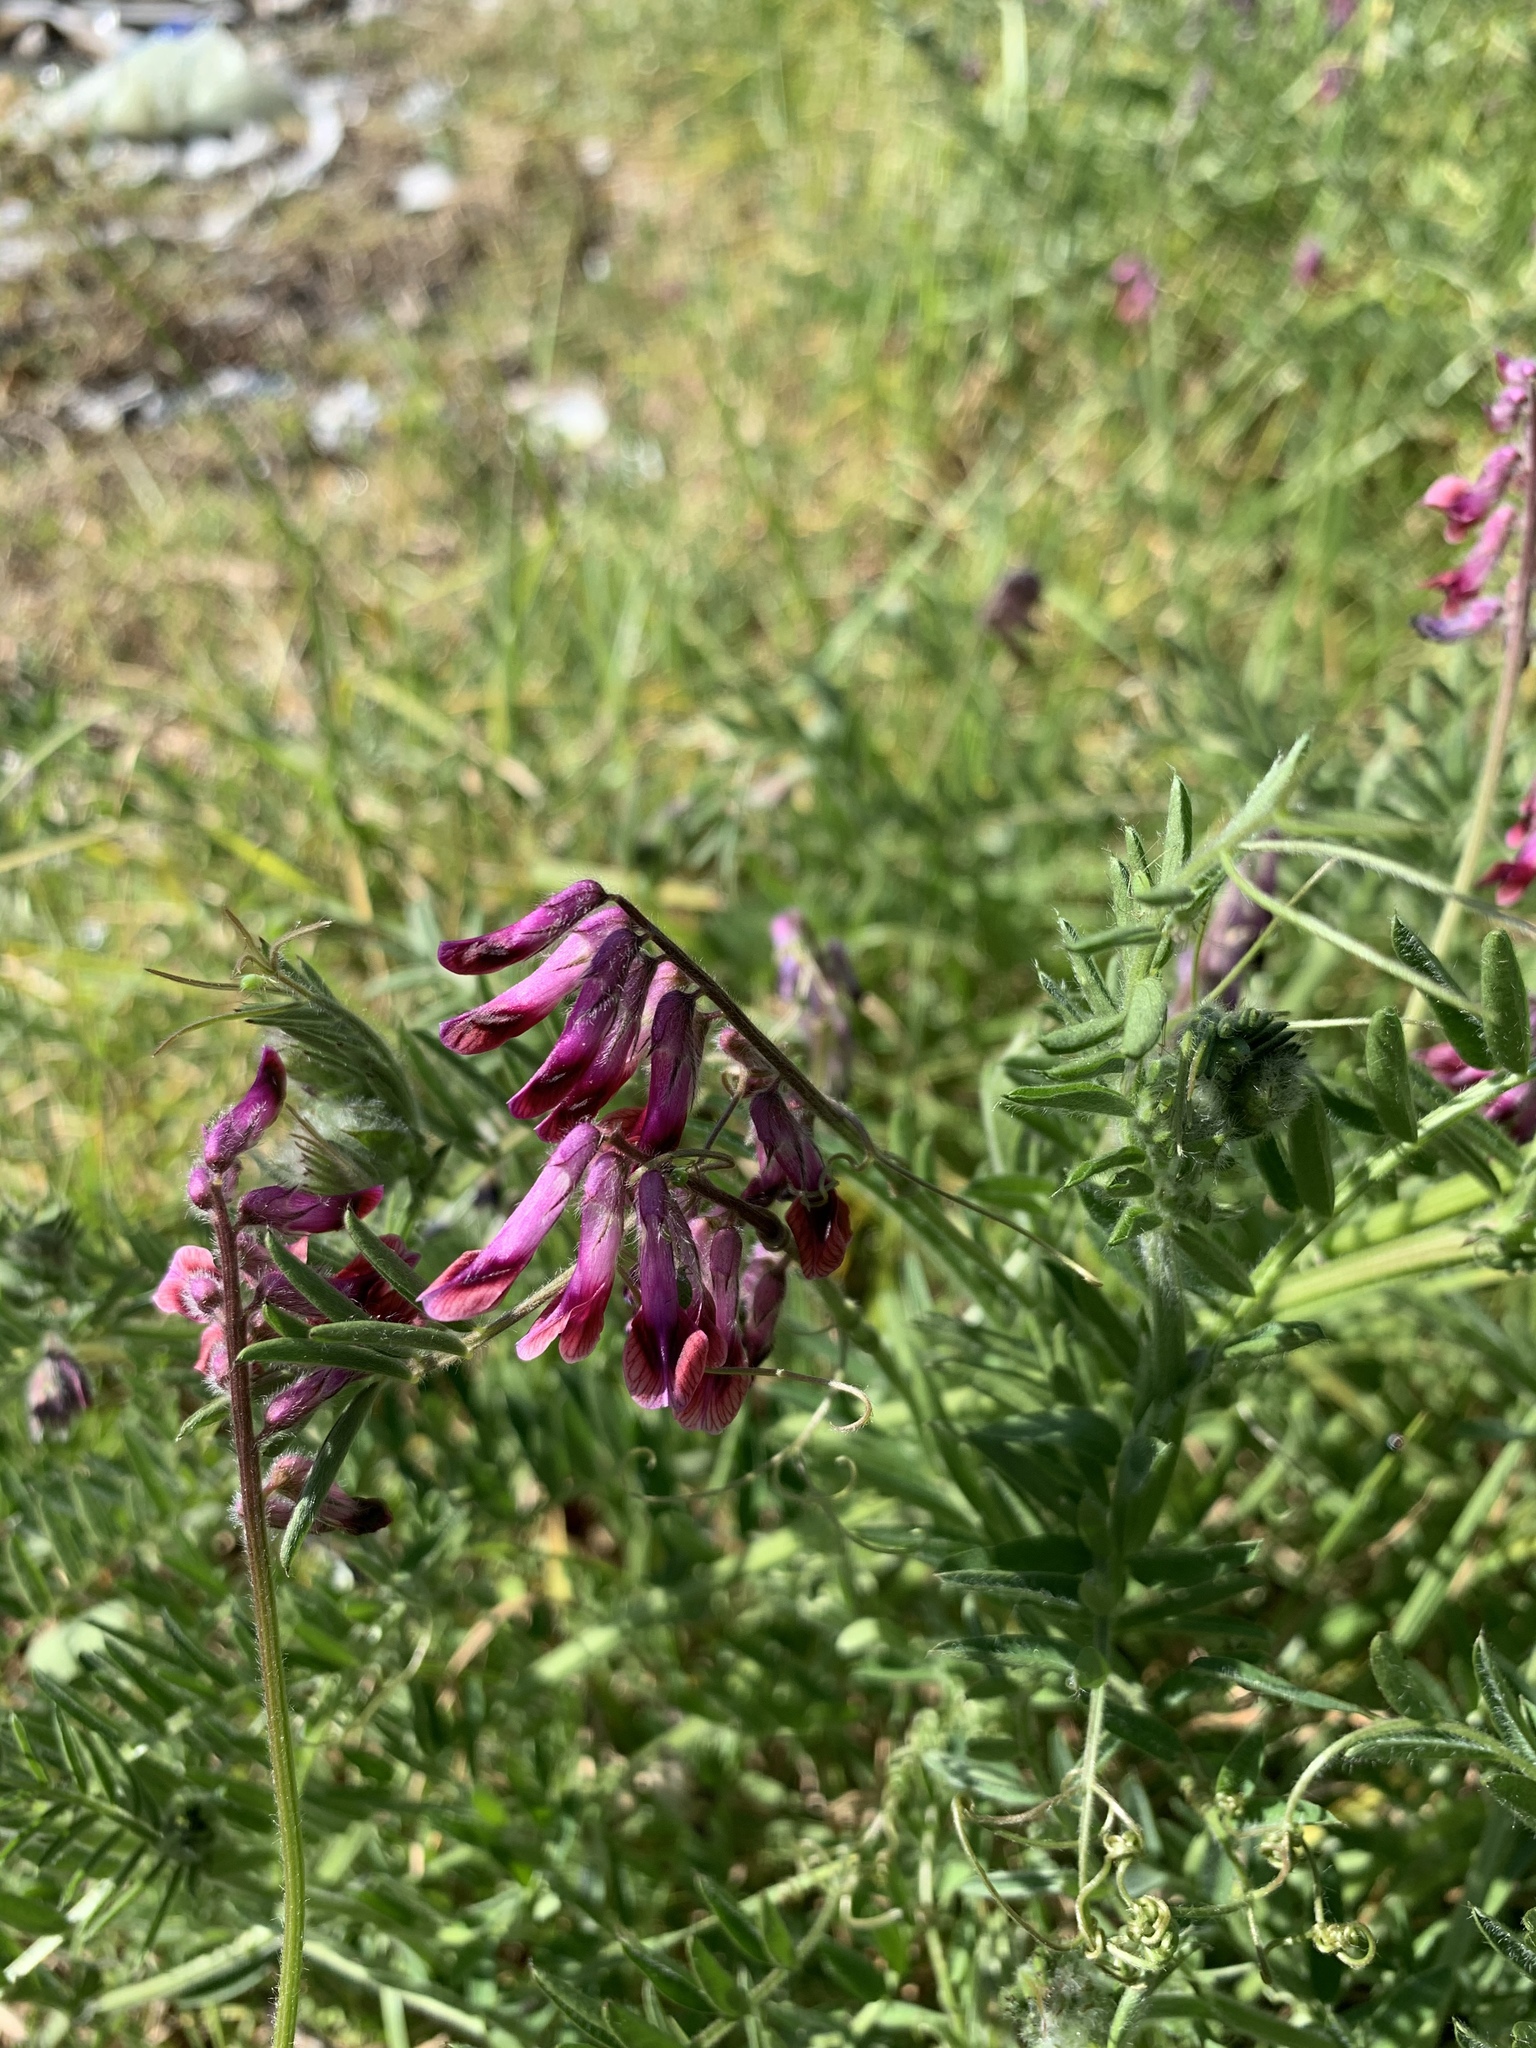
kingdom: Plantae
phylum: Tracheophyta
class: Magnoliopsida
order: Fabales
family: Fabaceae
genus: Vicia
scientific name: Vicia benghalensis
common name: Purple vetch
